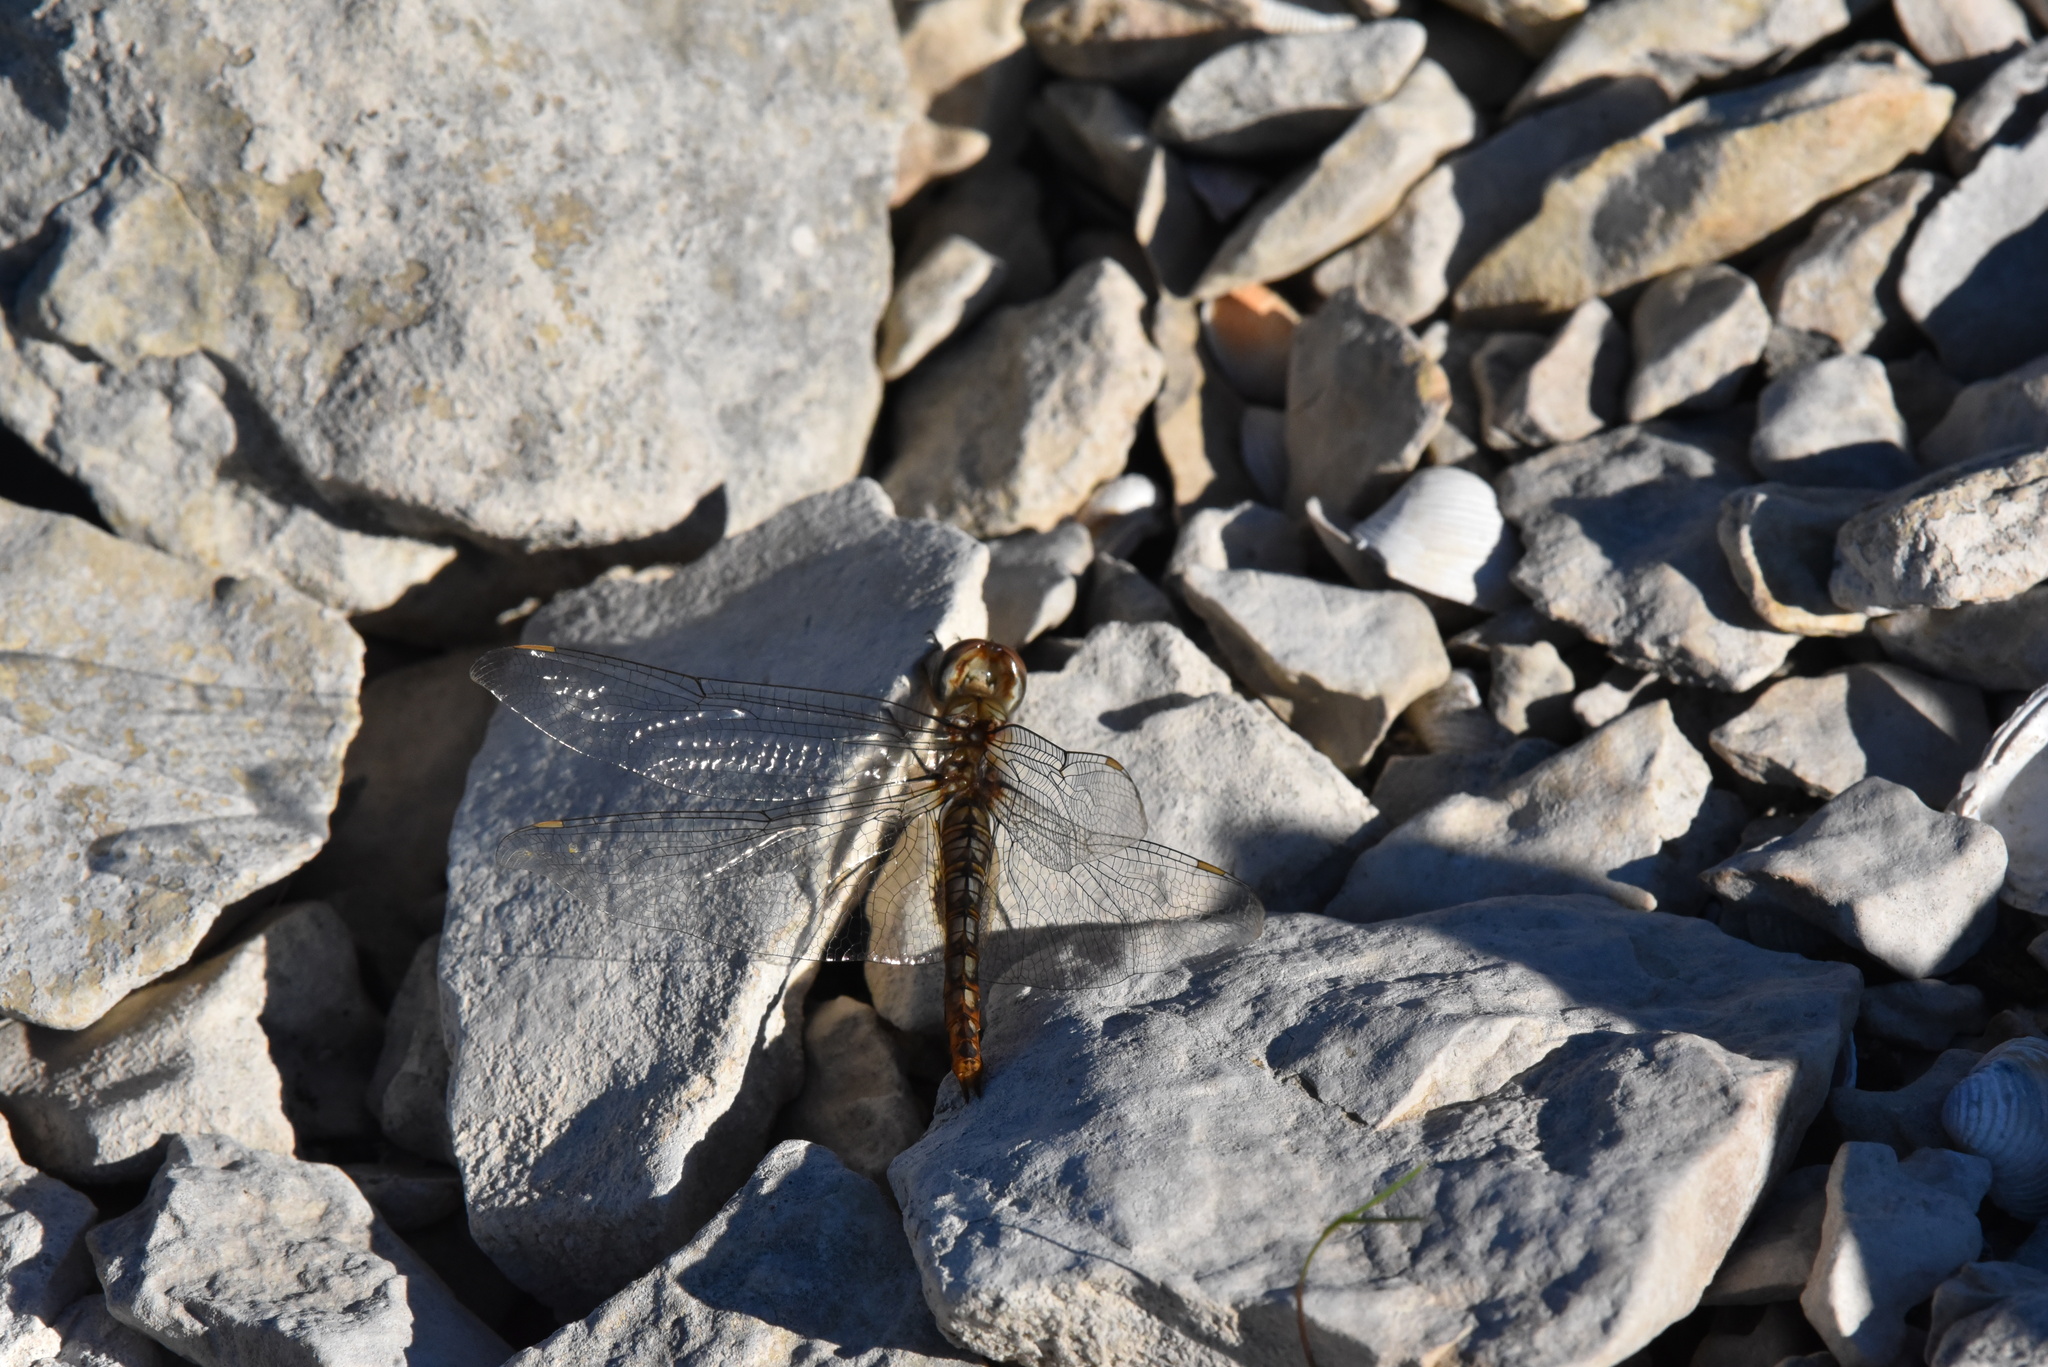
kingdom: Animalia
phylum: Arthropoda
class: Insecta
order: Odonata
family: Libellulidae
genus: Pantala
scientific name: Pantala hymenaea
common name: Spot-winged glider
